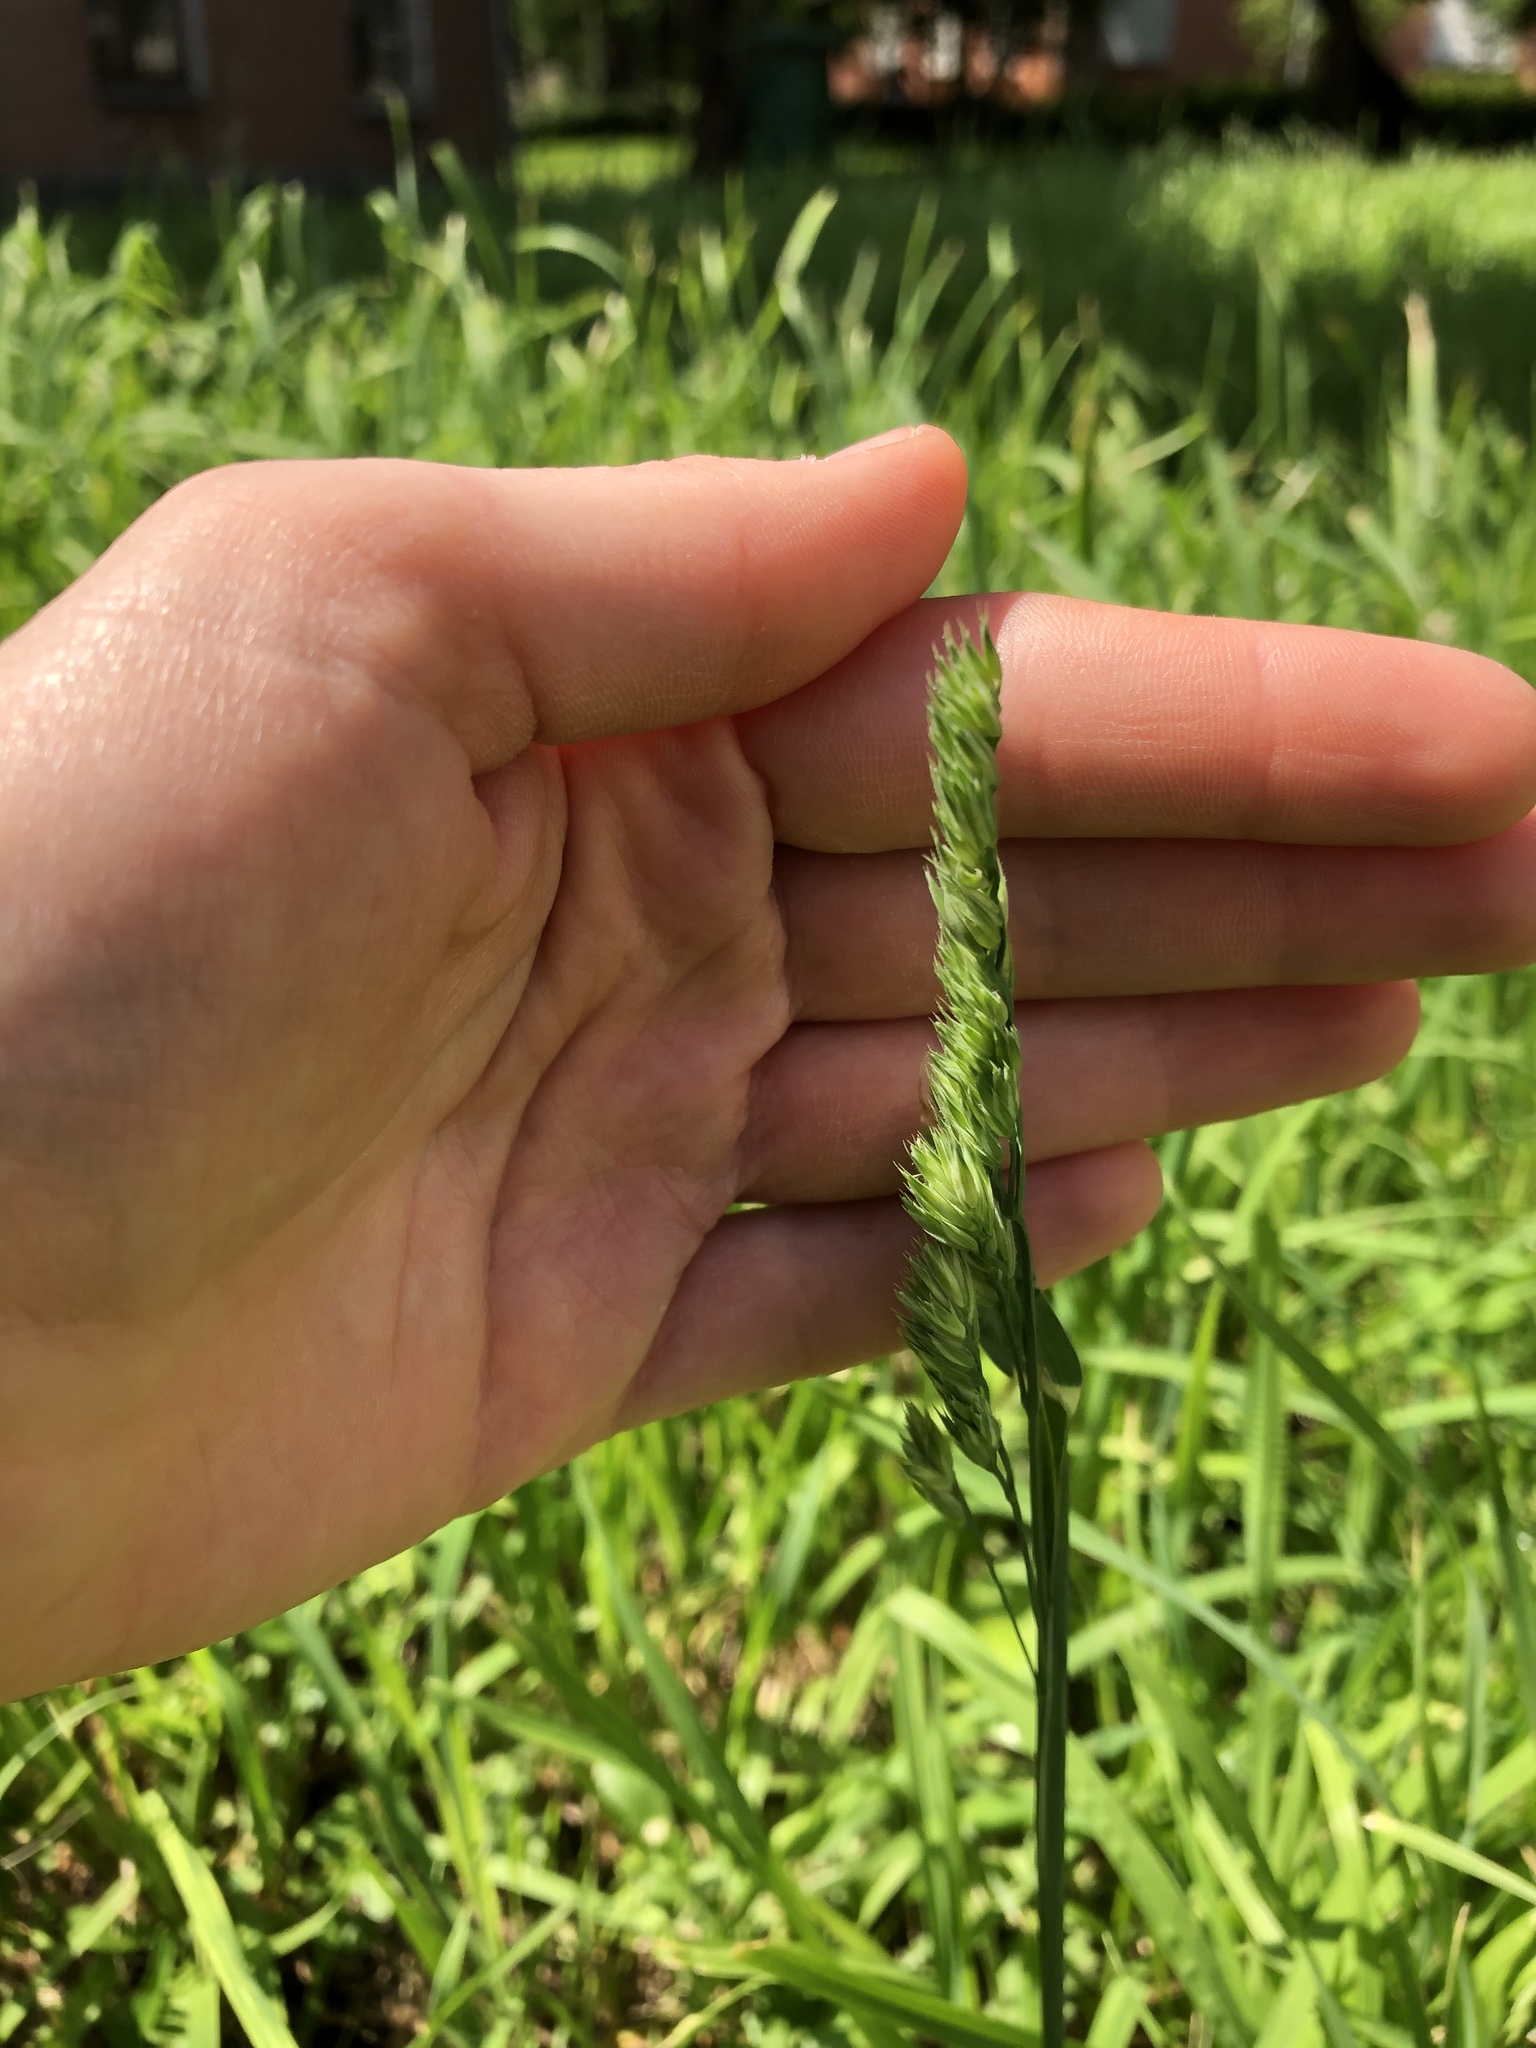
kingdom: Plantae
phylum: Tracheophyta
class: Liliopsida
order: Poales
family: Poaceae
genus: Dactylis
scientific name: Dactylis glomerata
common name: Orchardgrass
